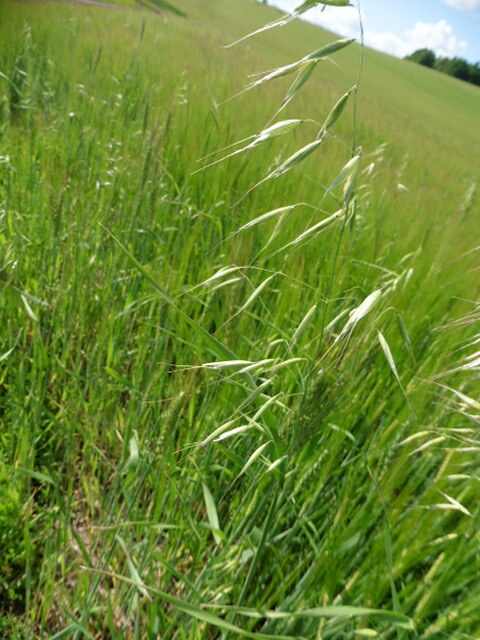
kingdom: Plantae
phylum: Tracheophyta
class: Liliopsida
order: Poales
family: Poaceae
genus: Avena
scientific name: Avena fatua
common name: Wild oat
